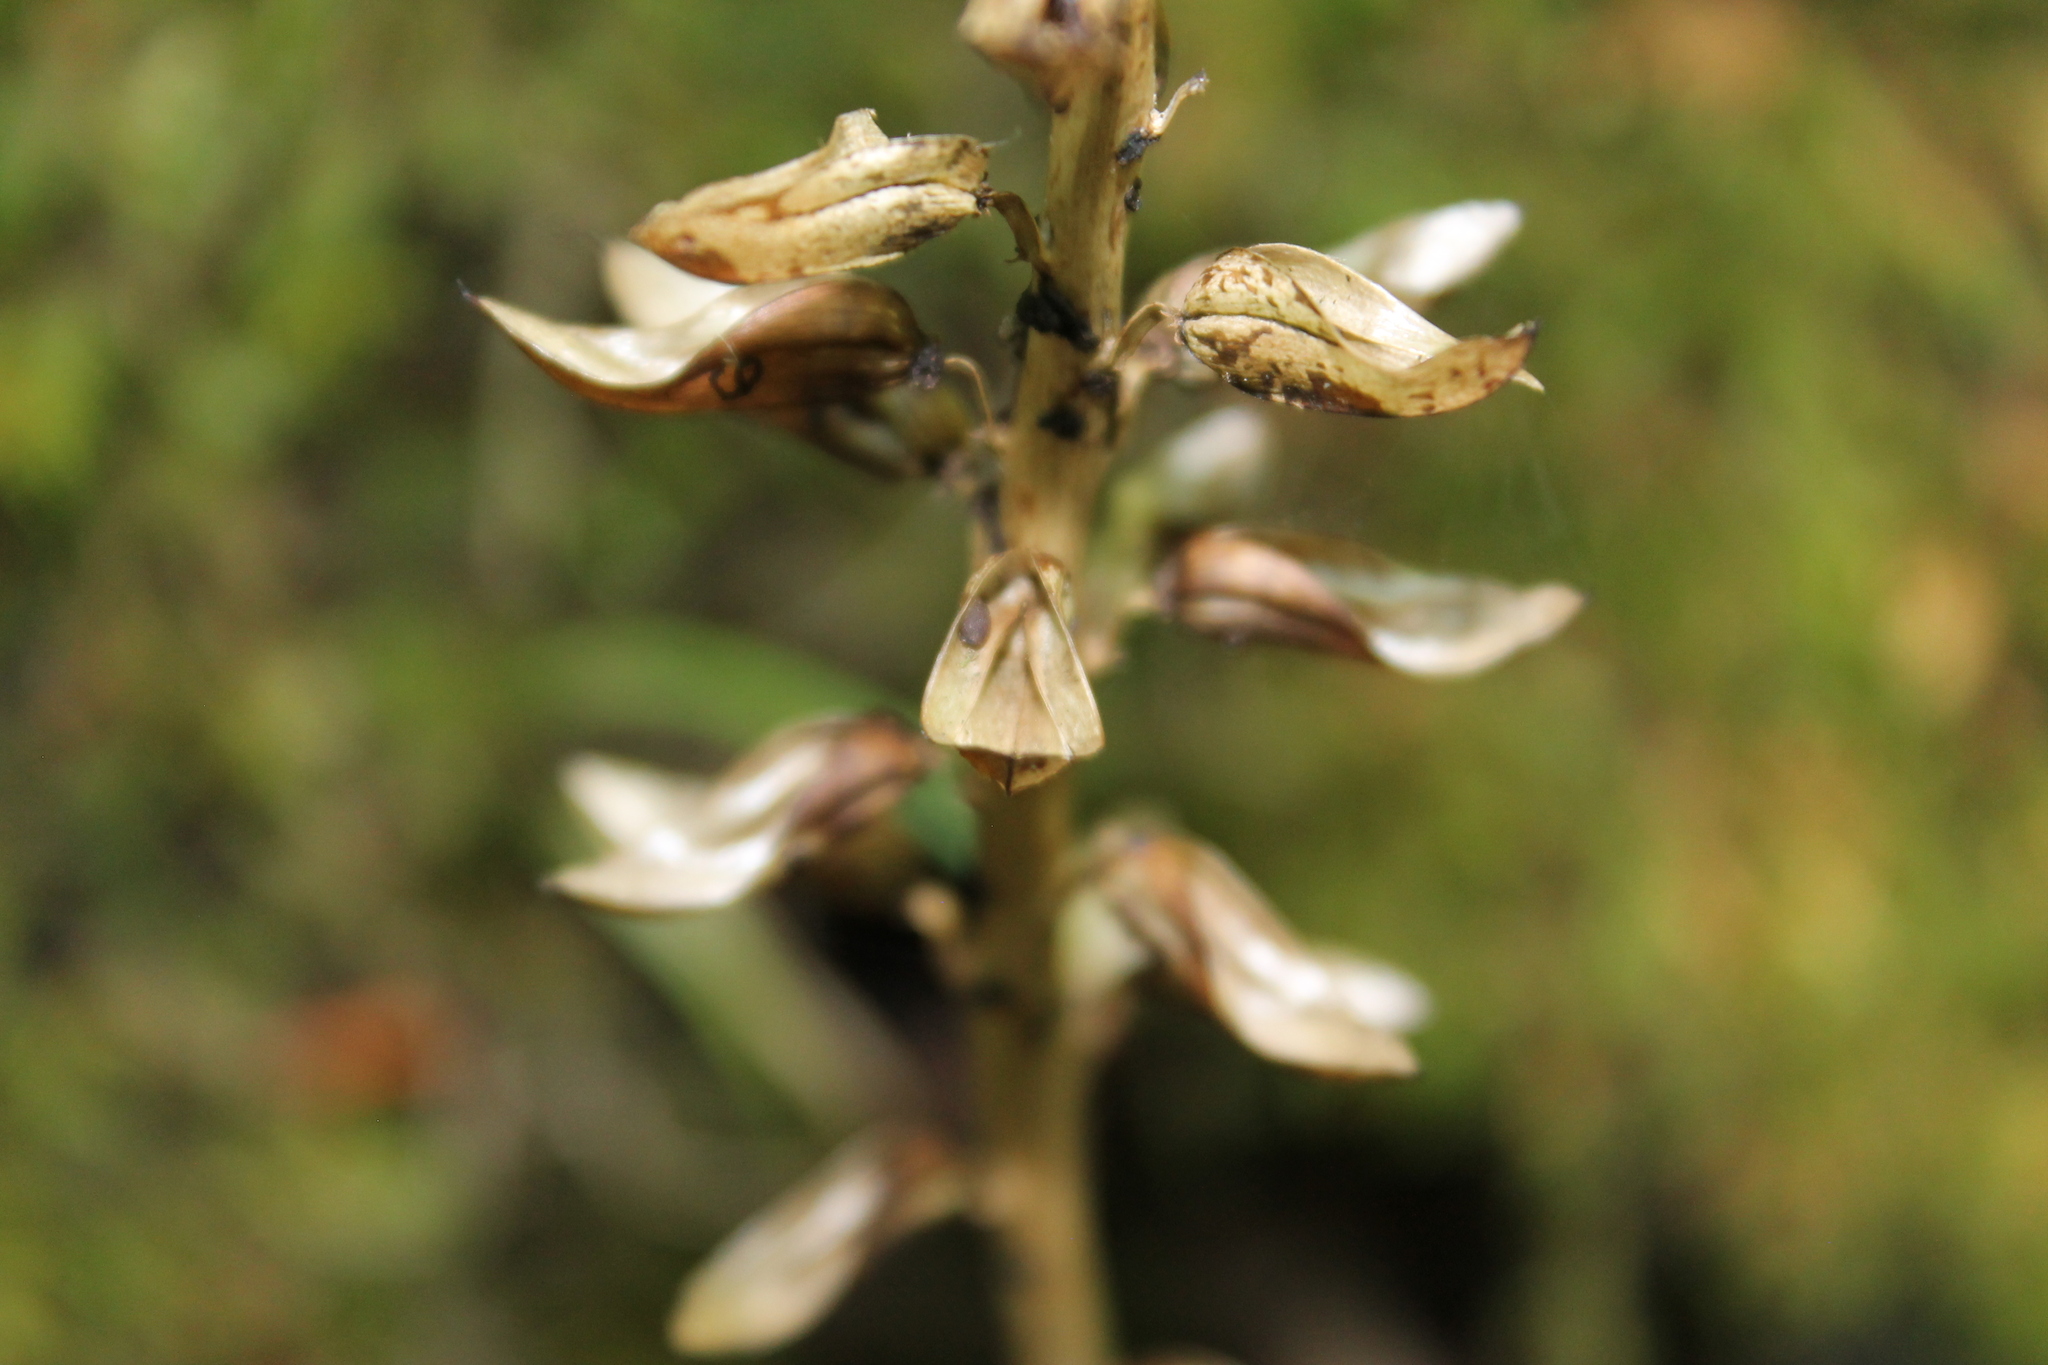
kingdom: Plantae
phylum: Tracheophyta
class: Magnoliopsida
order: Lamiales
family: Orobanchaceae
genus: Pedicularis
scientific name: Pedicularis canadensis
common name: Early lousewort
